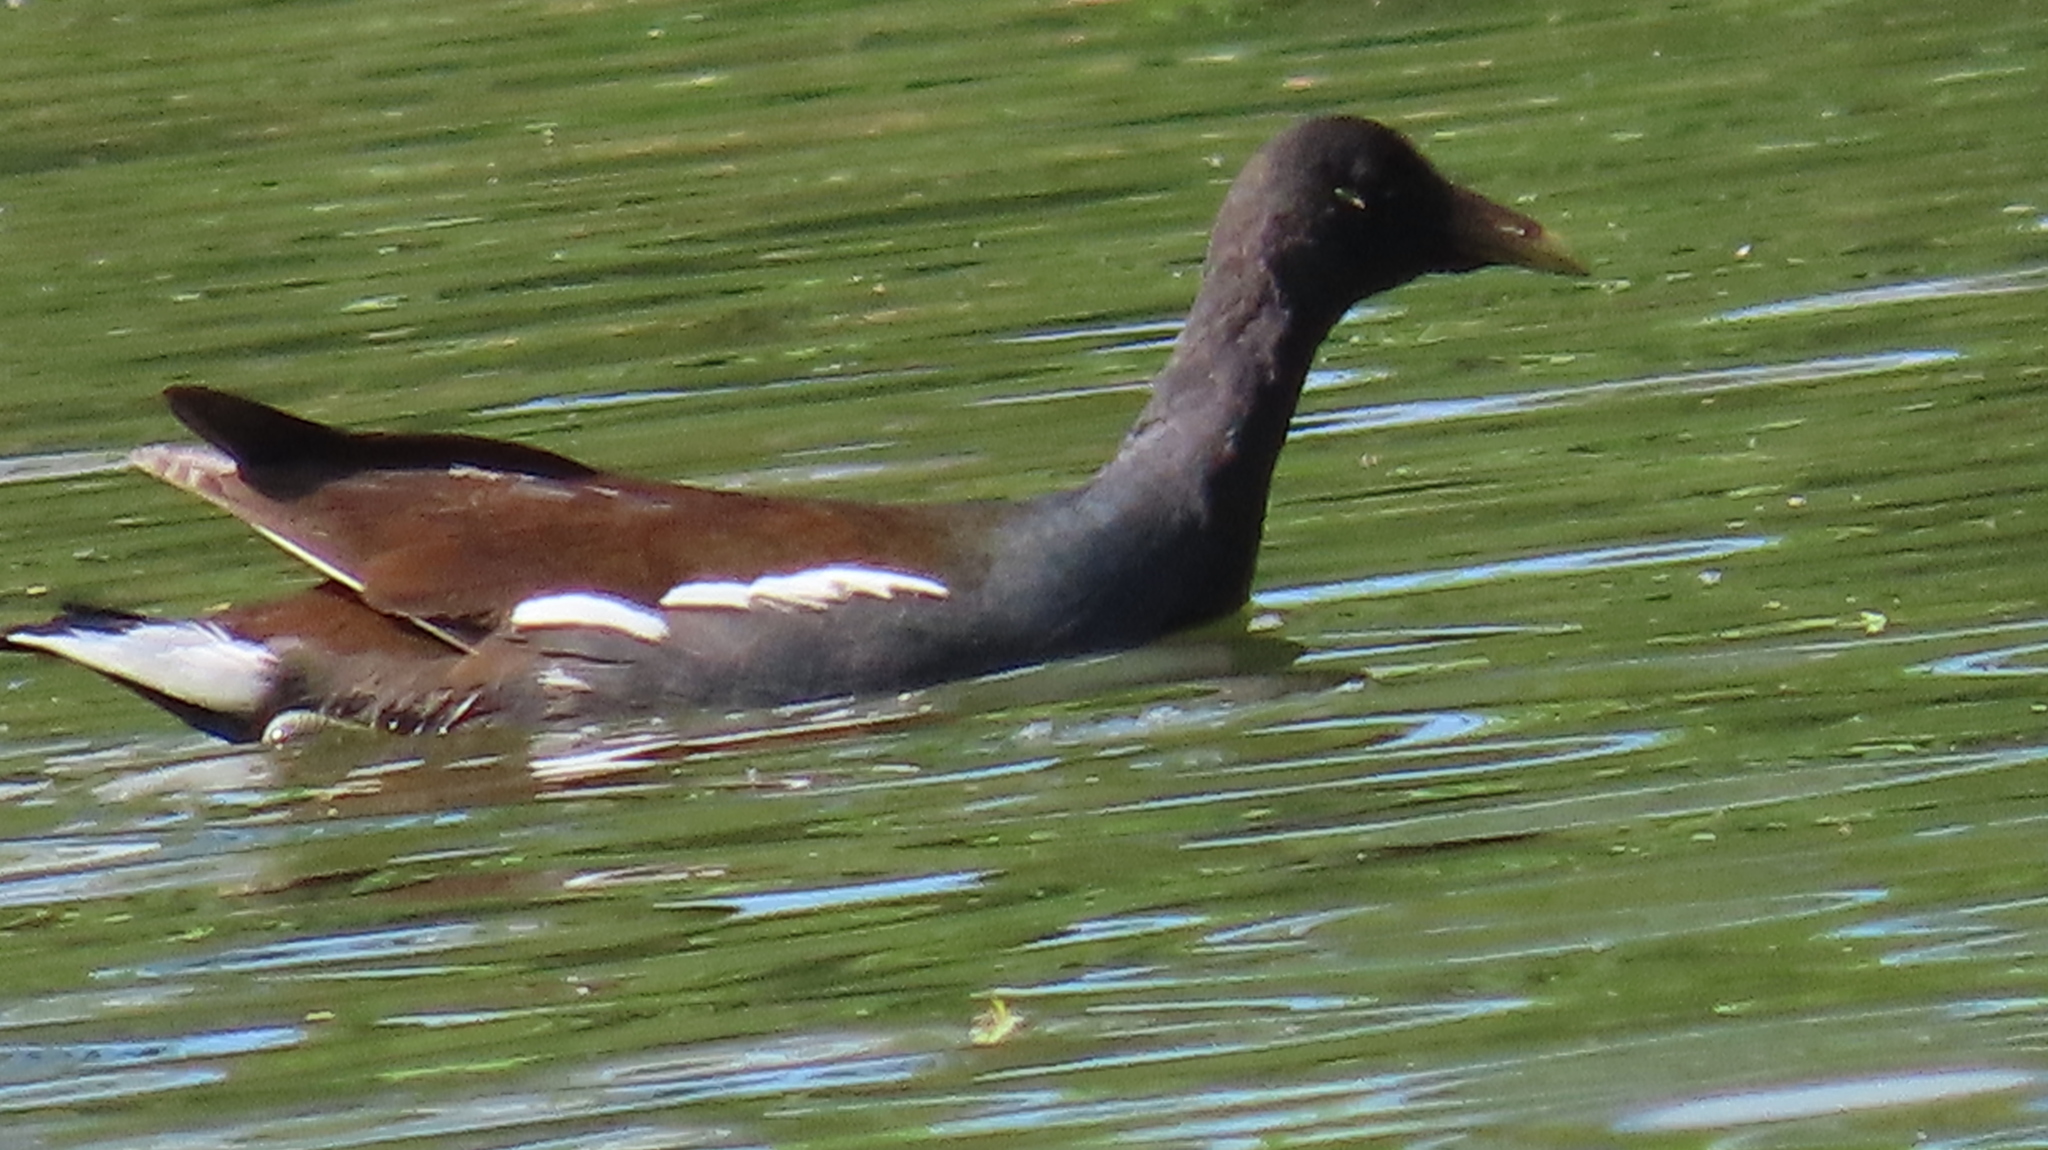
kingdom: Animalia
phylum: Chordata
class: Aves
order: Gruiformes
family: Rallidae
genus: Gallinula
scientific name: Gallinula chloropus
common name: Common moorhen
